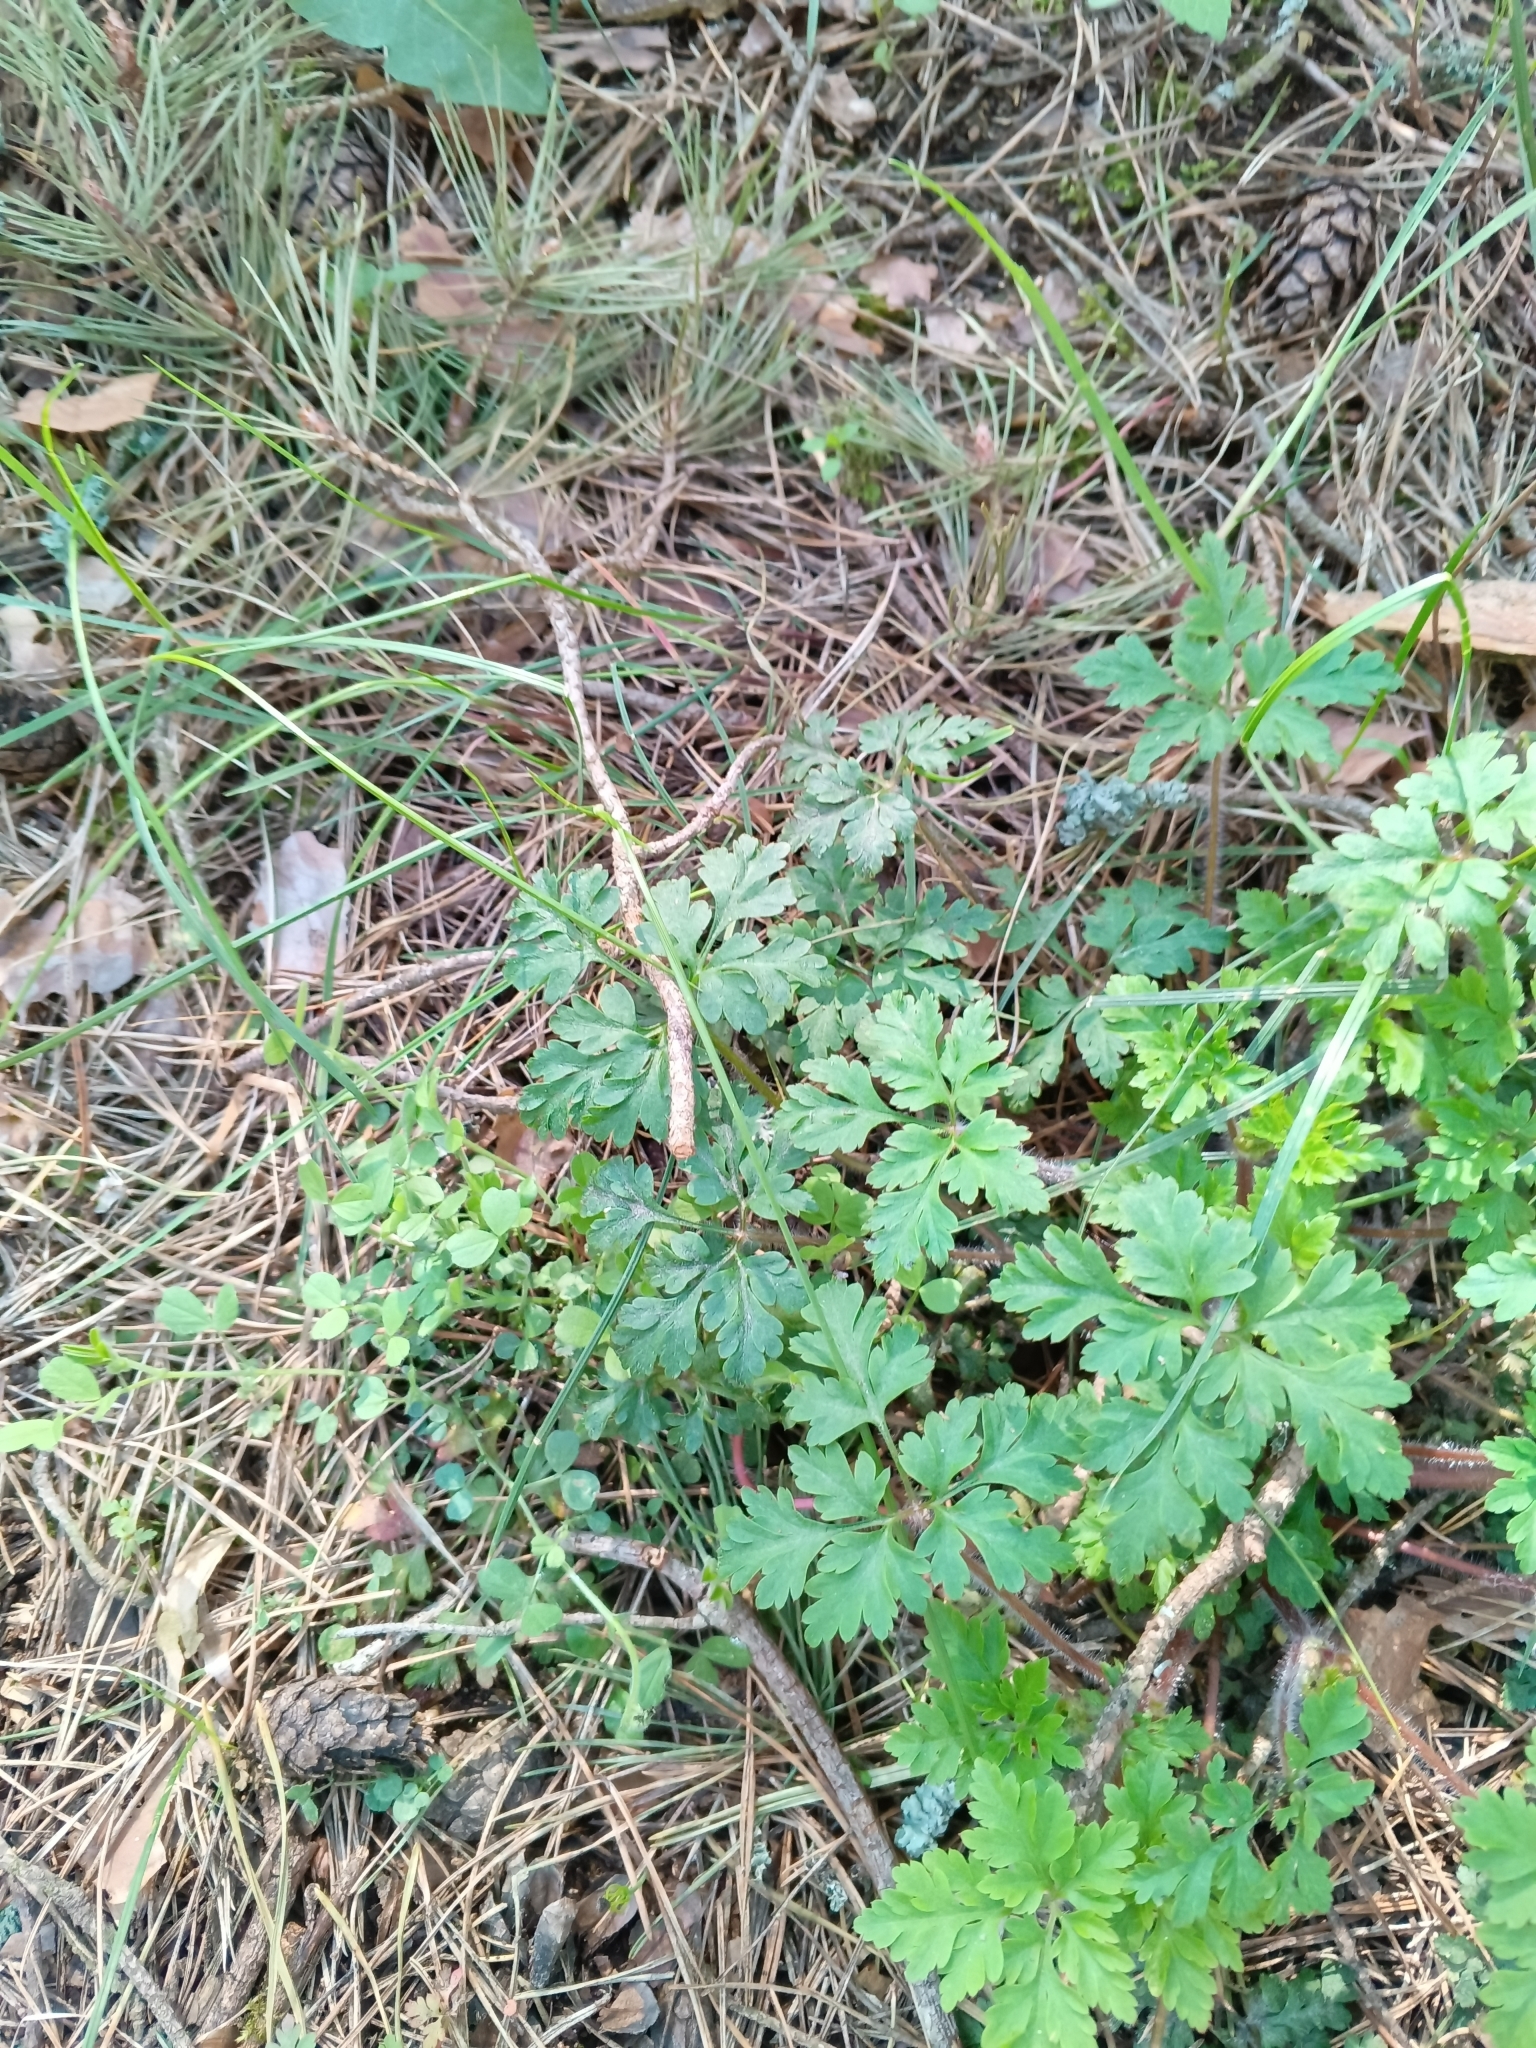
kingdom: Plantae
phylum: Tracheophyta
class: Magnoliopsida
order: Geraniales
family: Geraniaceae
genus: Geranium
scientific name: Geranium robertianum
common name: Herb-robert
